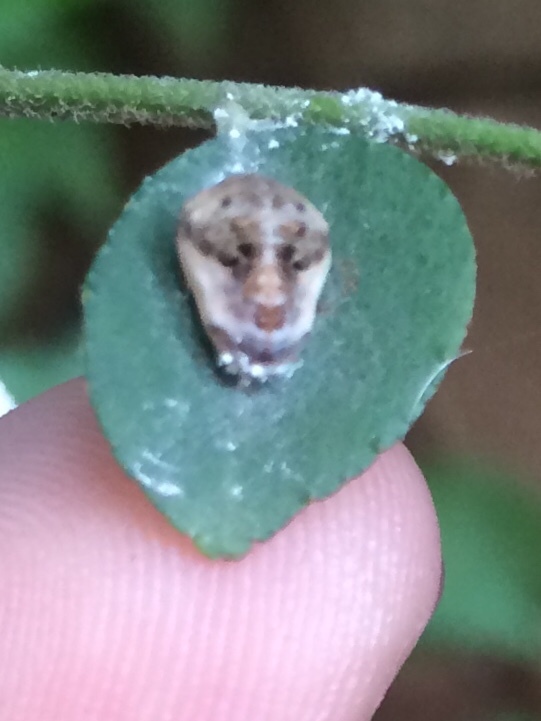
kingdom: Animalia
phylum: Arthropoda
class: Insecta
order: Lepidoptera
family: Lycaenidae
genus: Spalgis
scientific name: Spalgis epius
